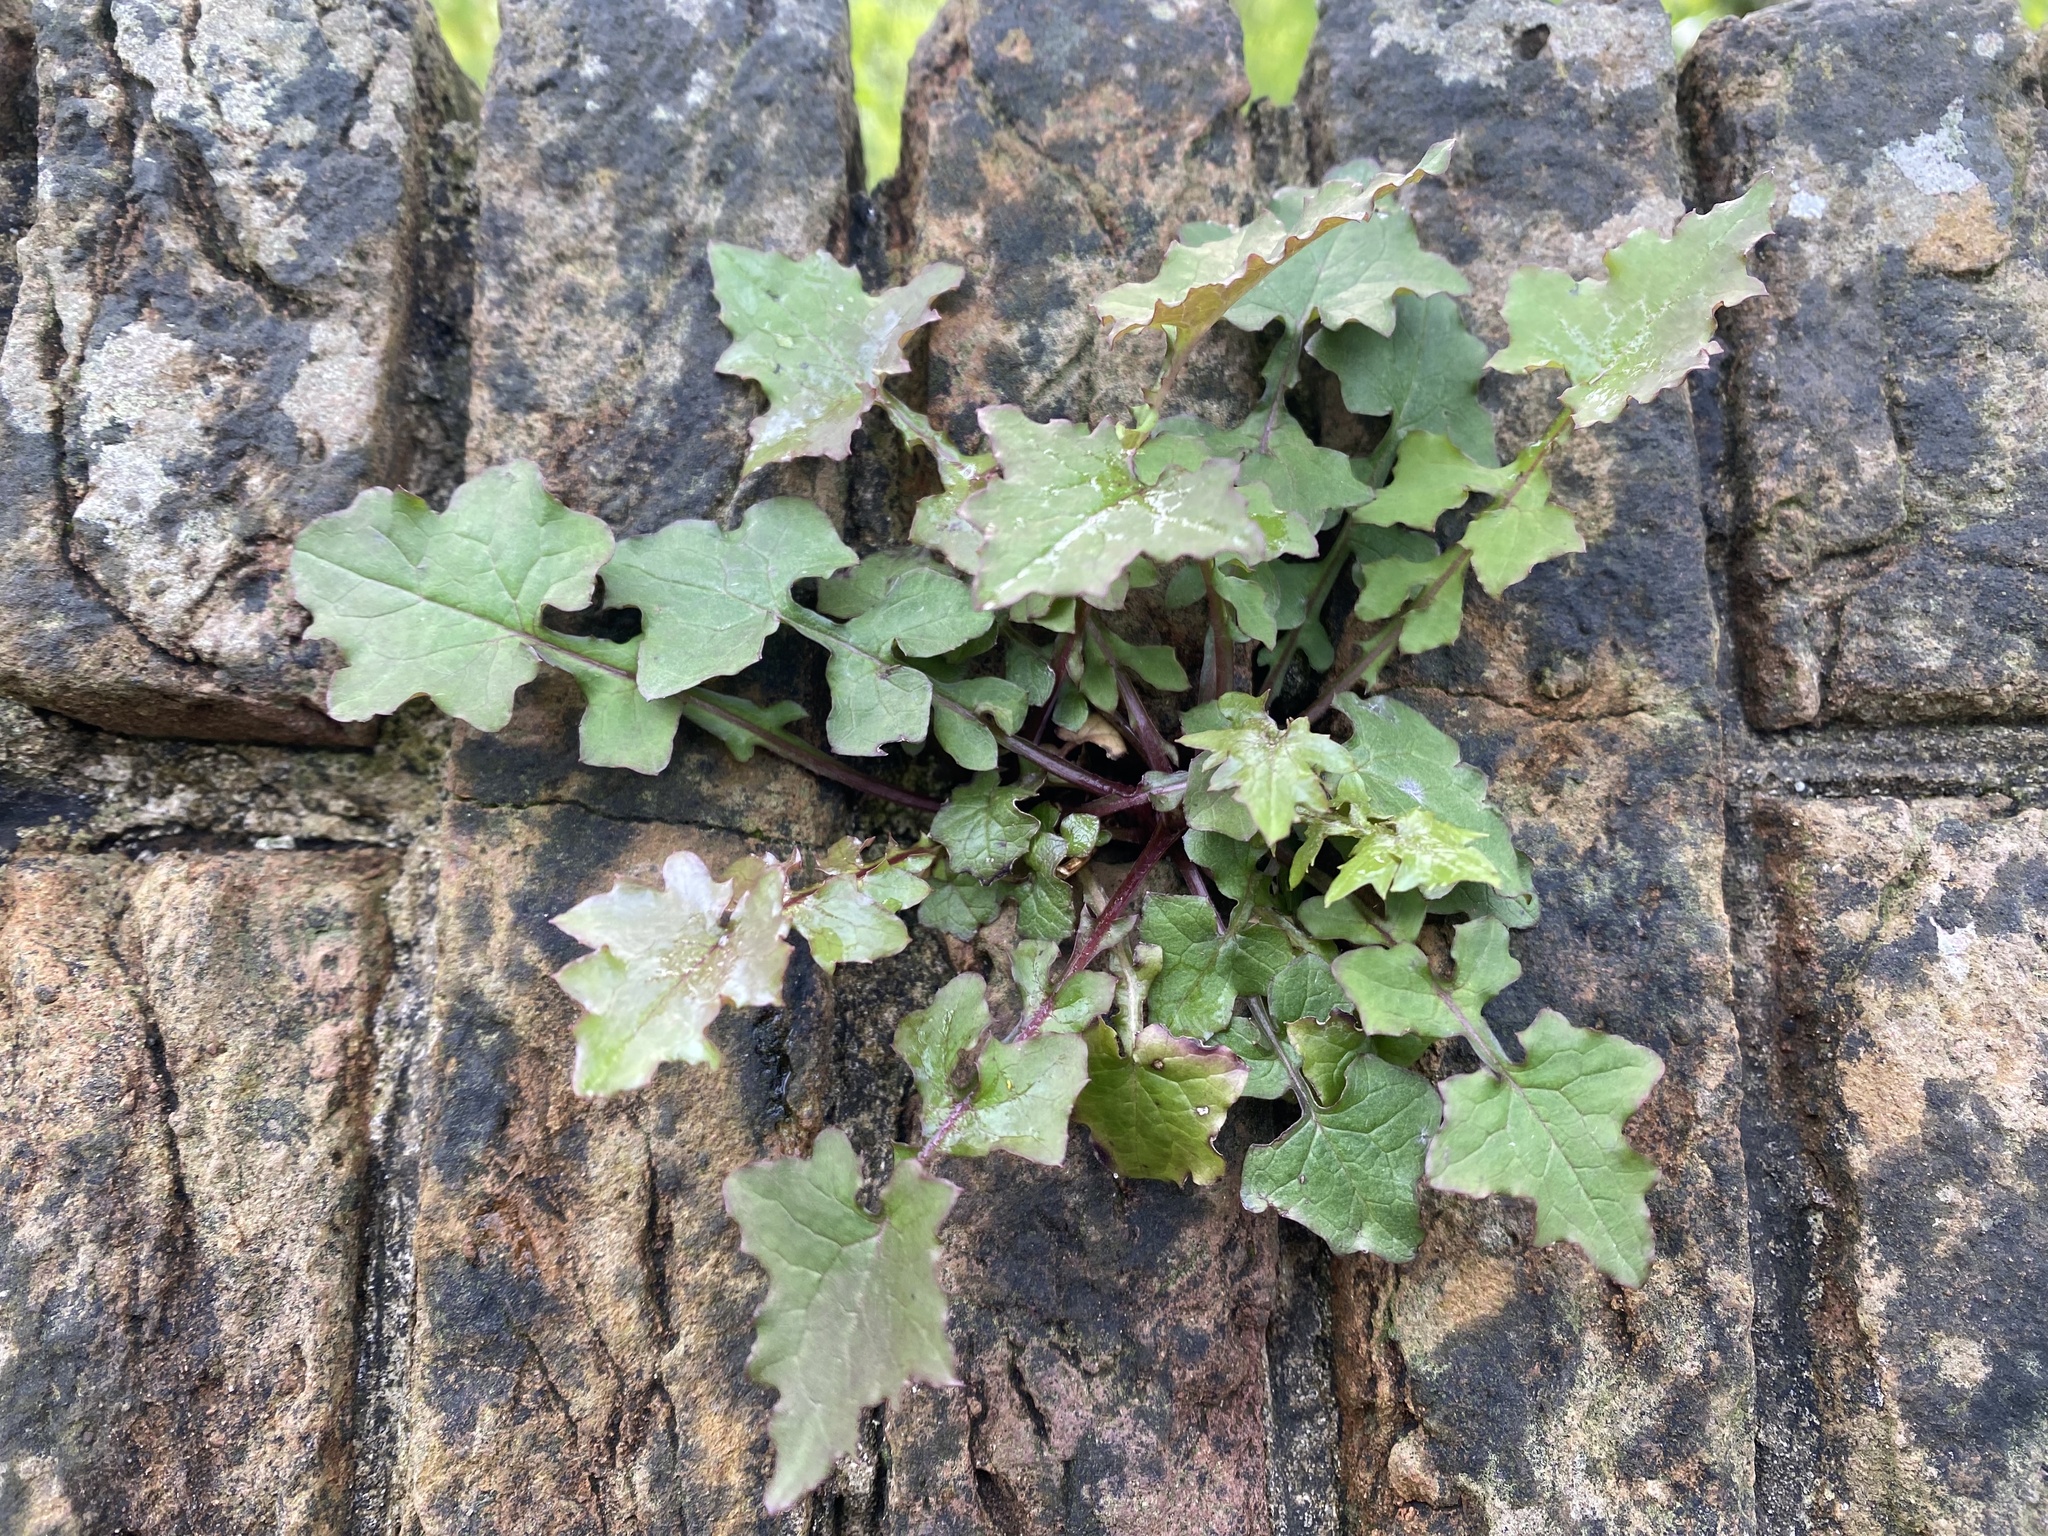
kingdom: Plantae
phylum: Tracheophyta
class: Magnoliopsida
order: Asterales
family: Asteraceae
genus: Mycelis
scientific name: Mycelis muralis
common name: Wall lettuce
